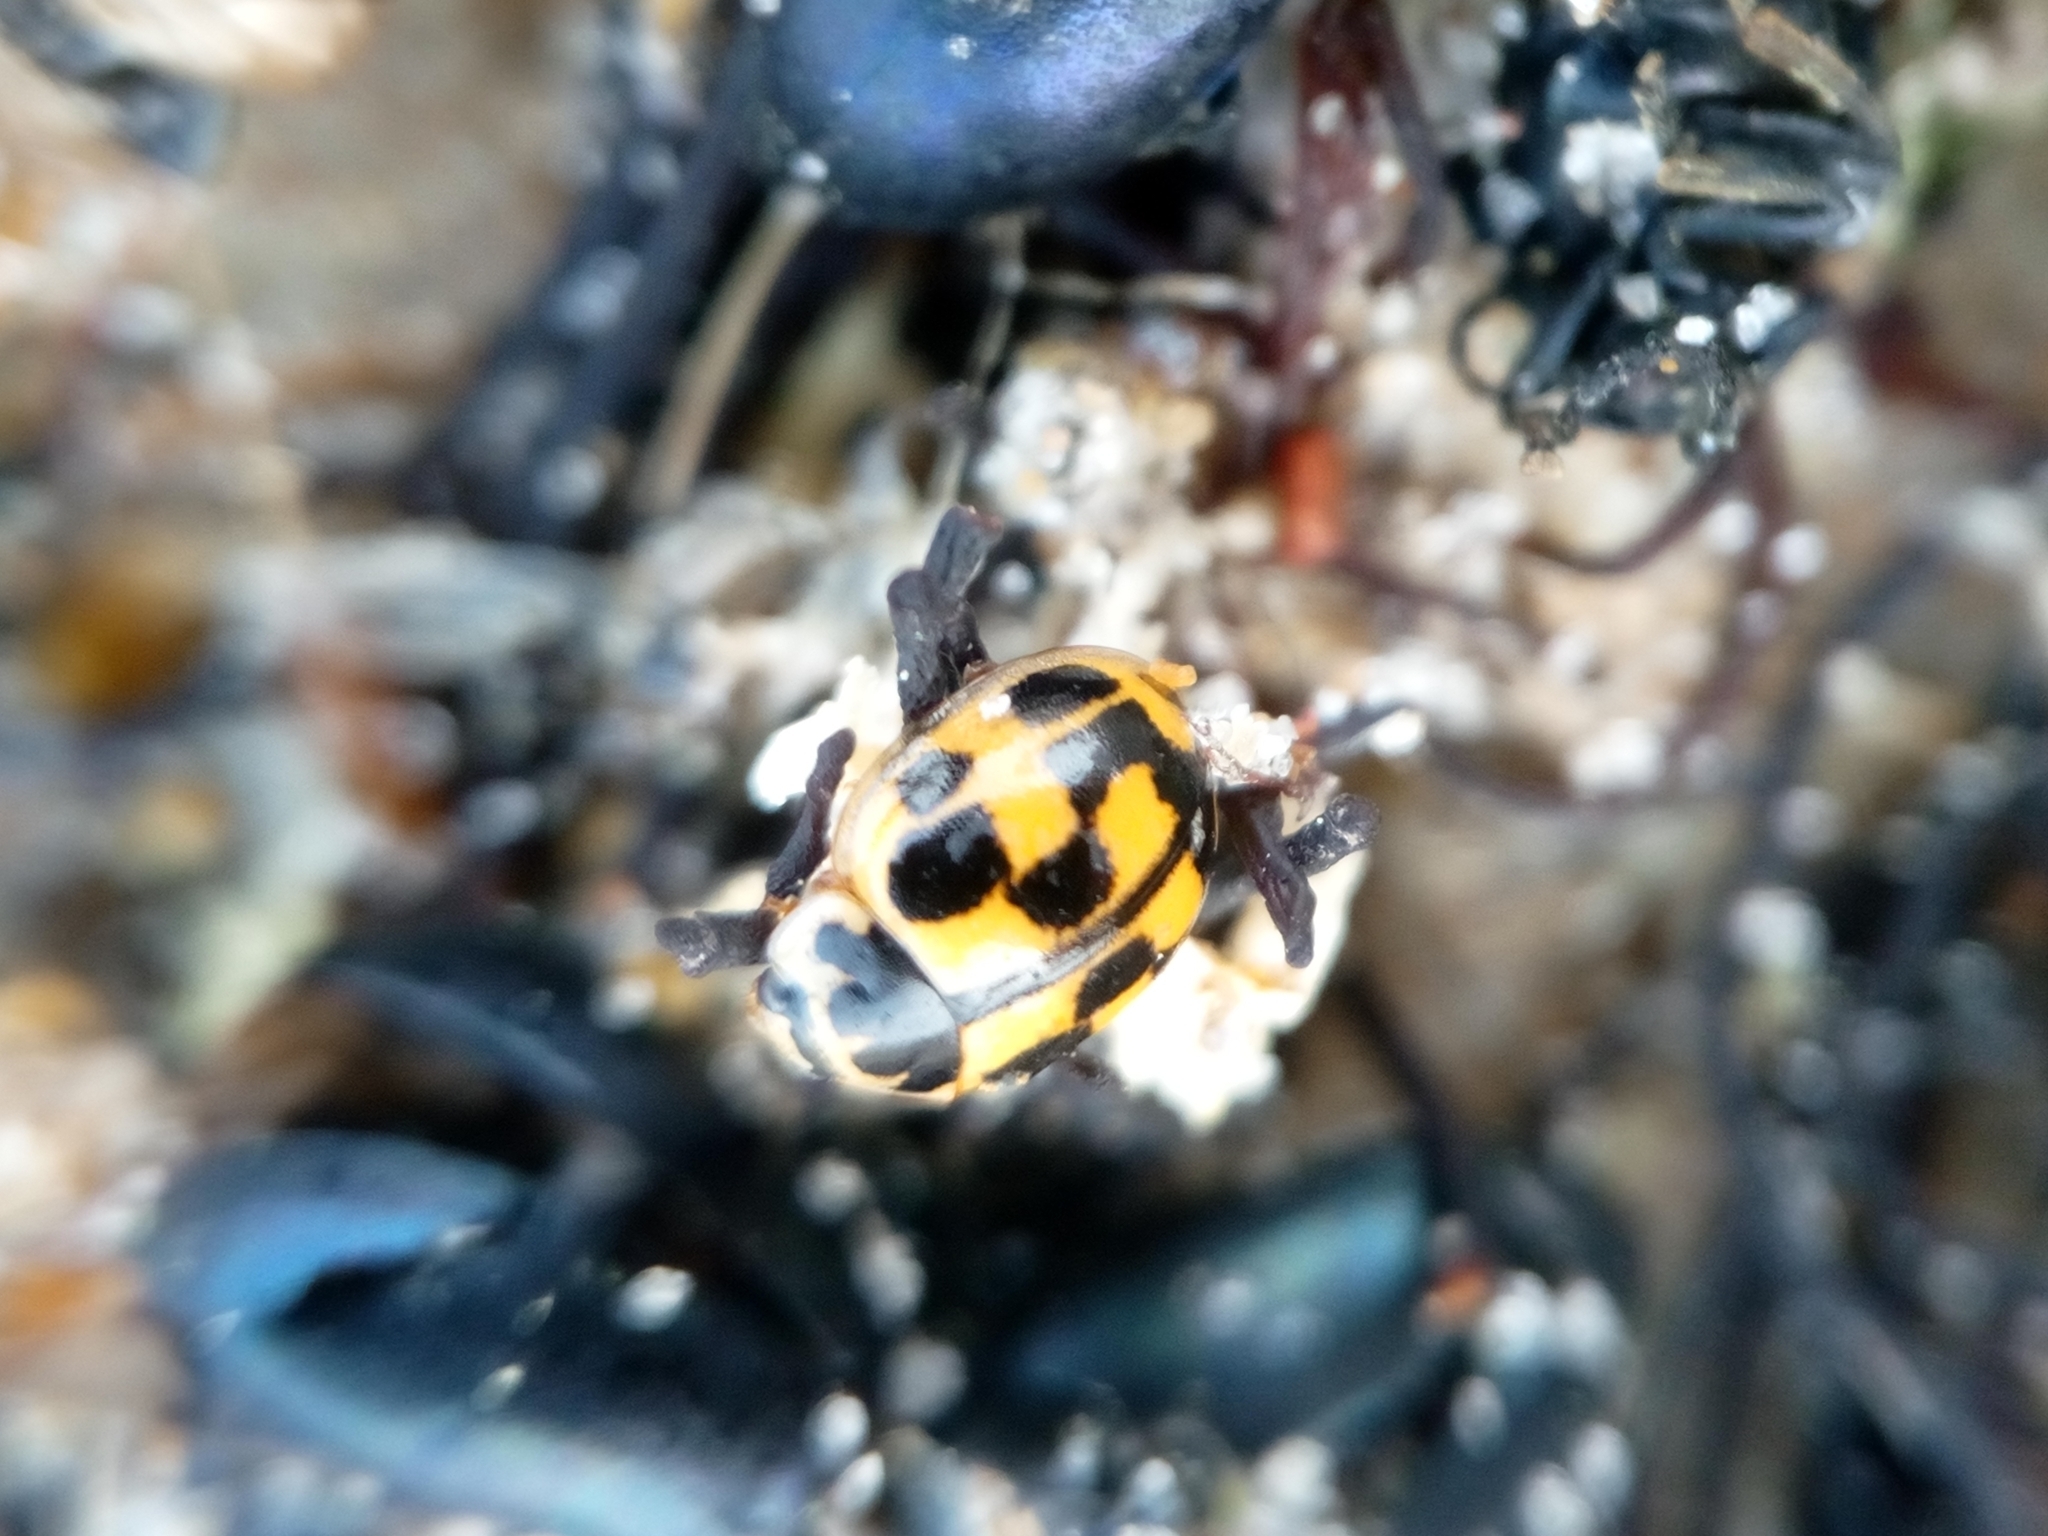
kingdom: Animalia
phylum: Arthropoda
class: Insecta
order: Coleoptera
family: Coccinellidae
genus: Propylaea
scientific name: Propylaea quatuordecimpunctata
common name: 14-spotted ladybird beetle
